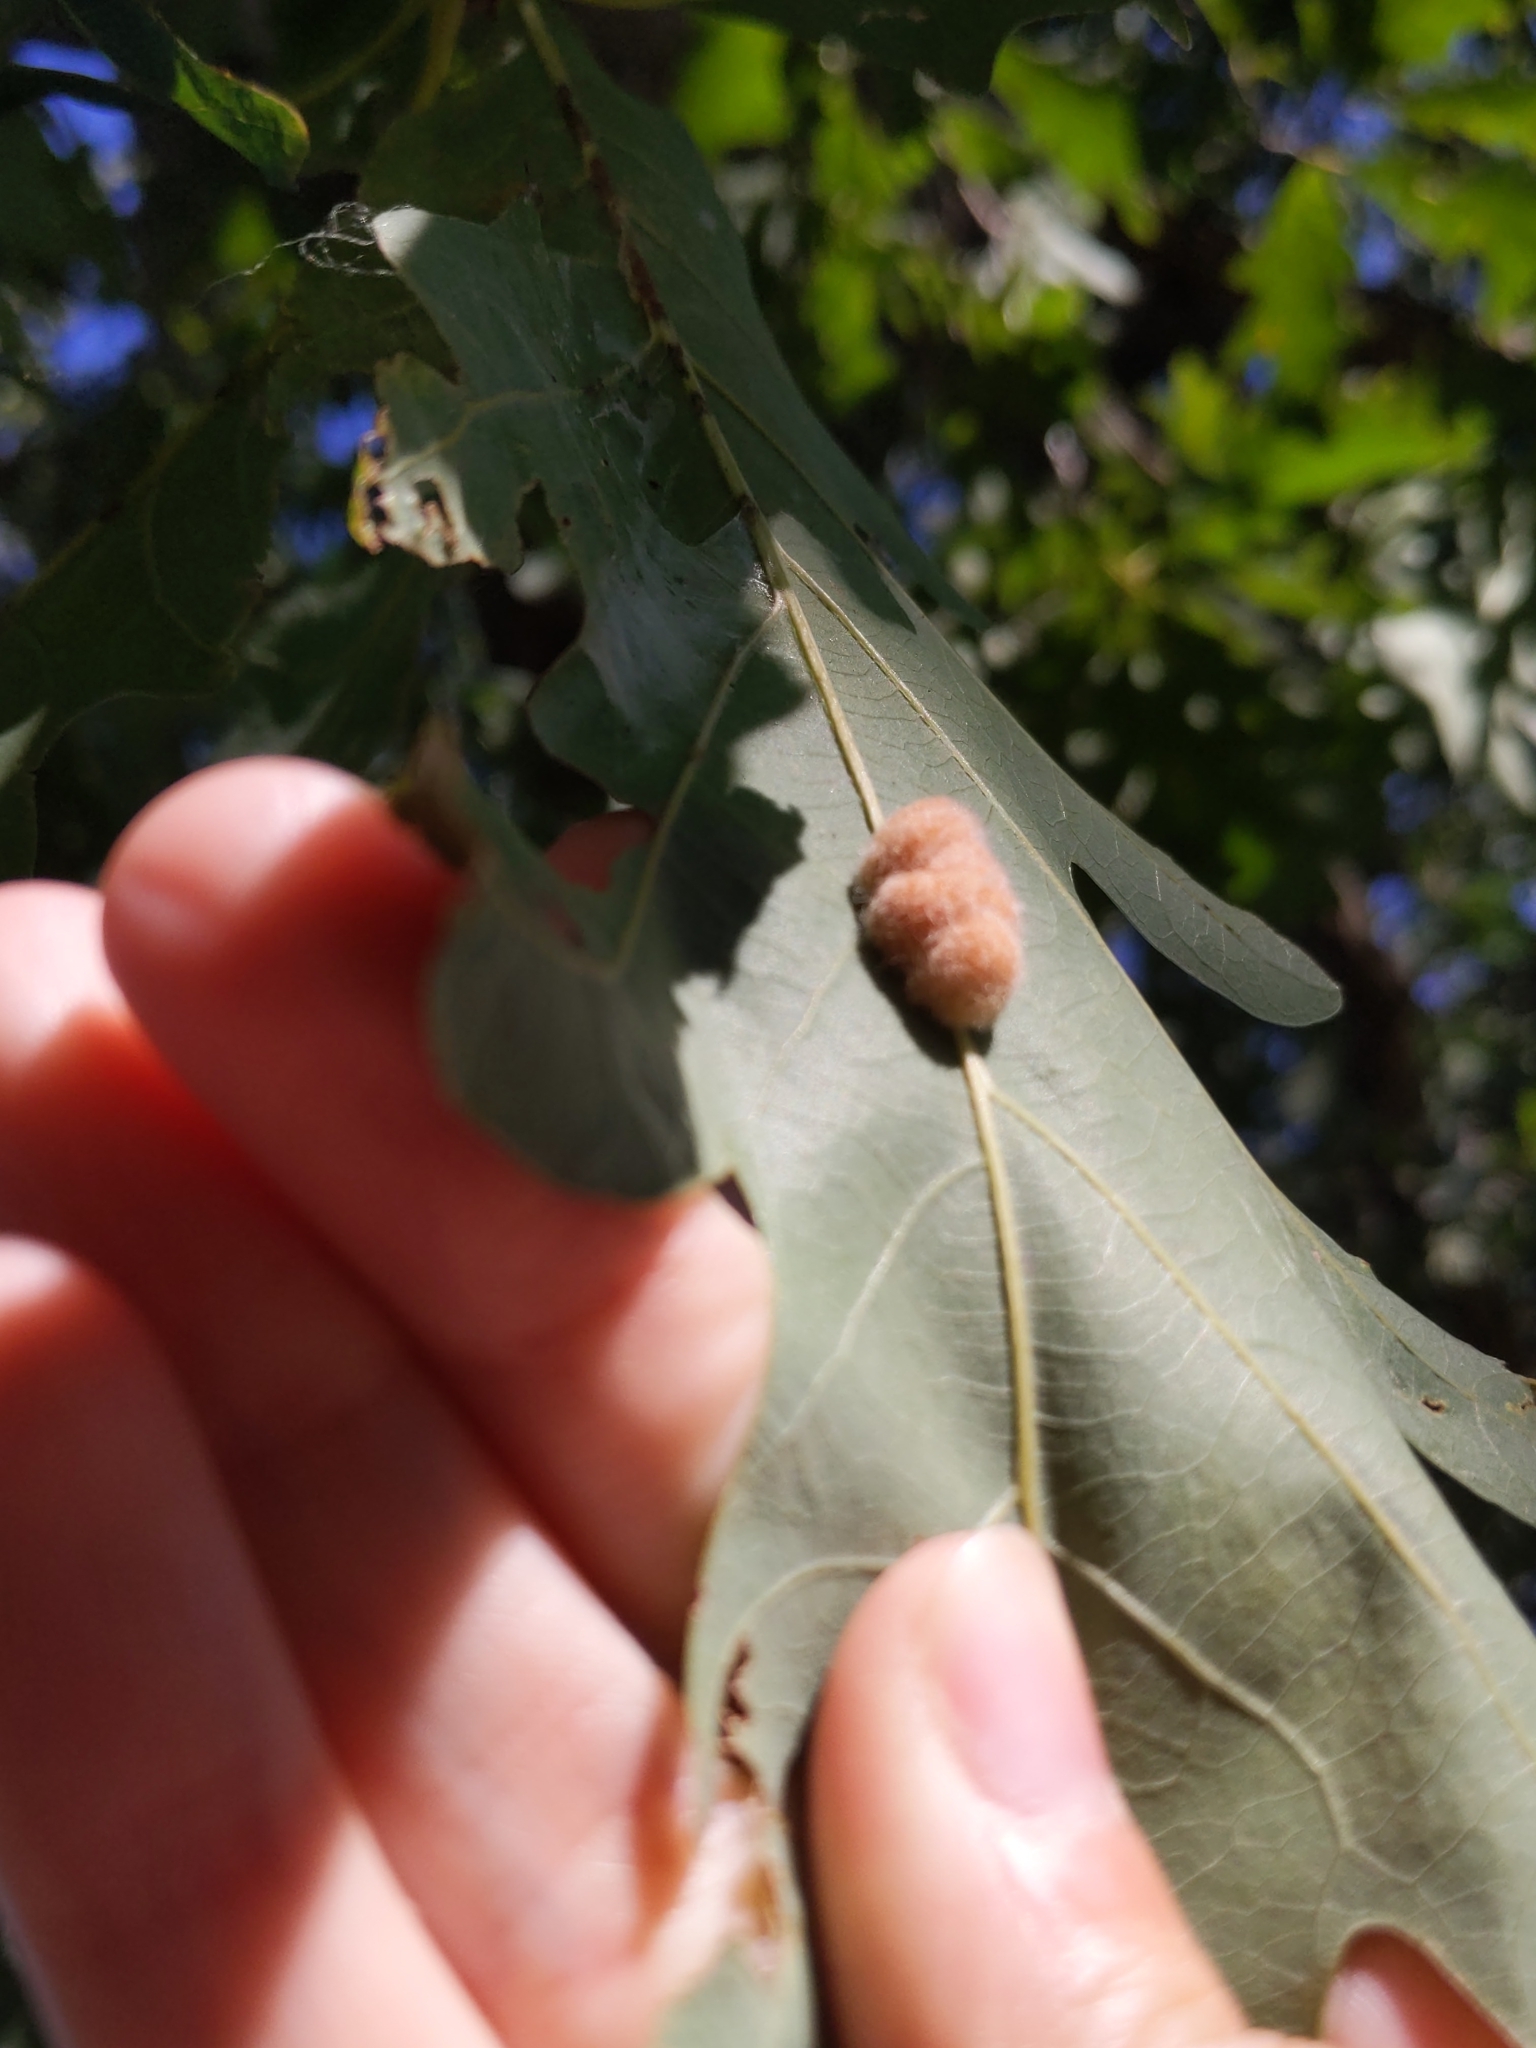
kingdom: Animalia
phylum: Arthropoda
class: Insecta
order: Hymenoptera
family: Cynipidae
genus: Andricus
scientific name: Andricus quercusflocci
